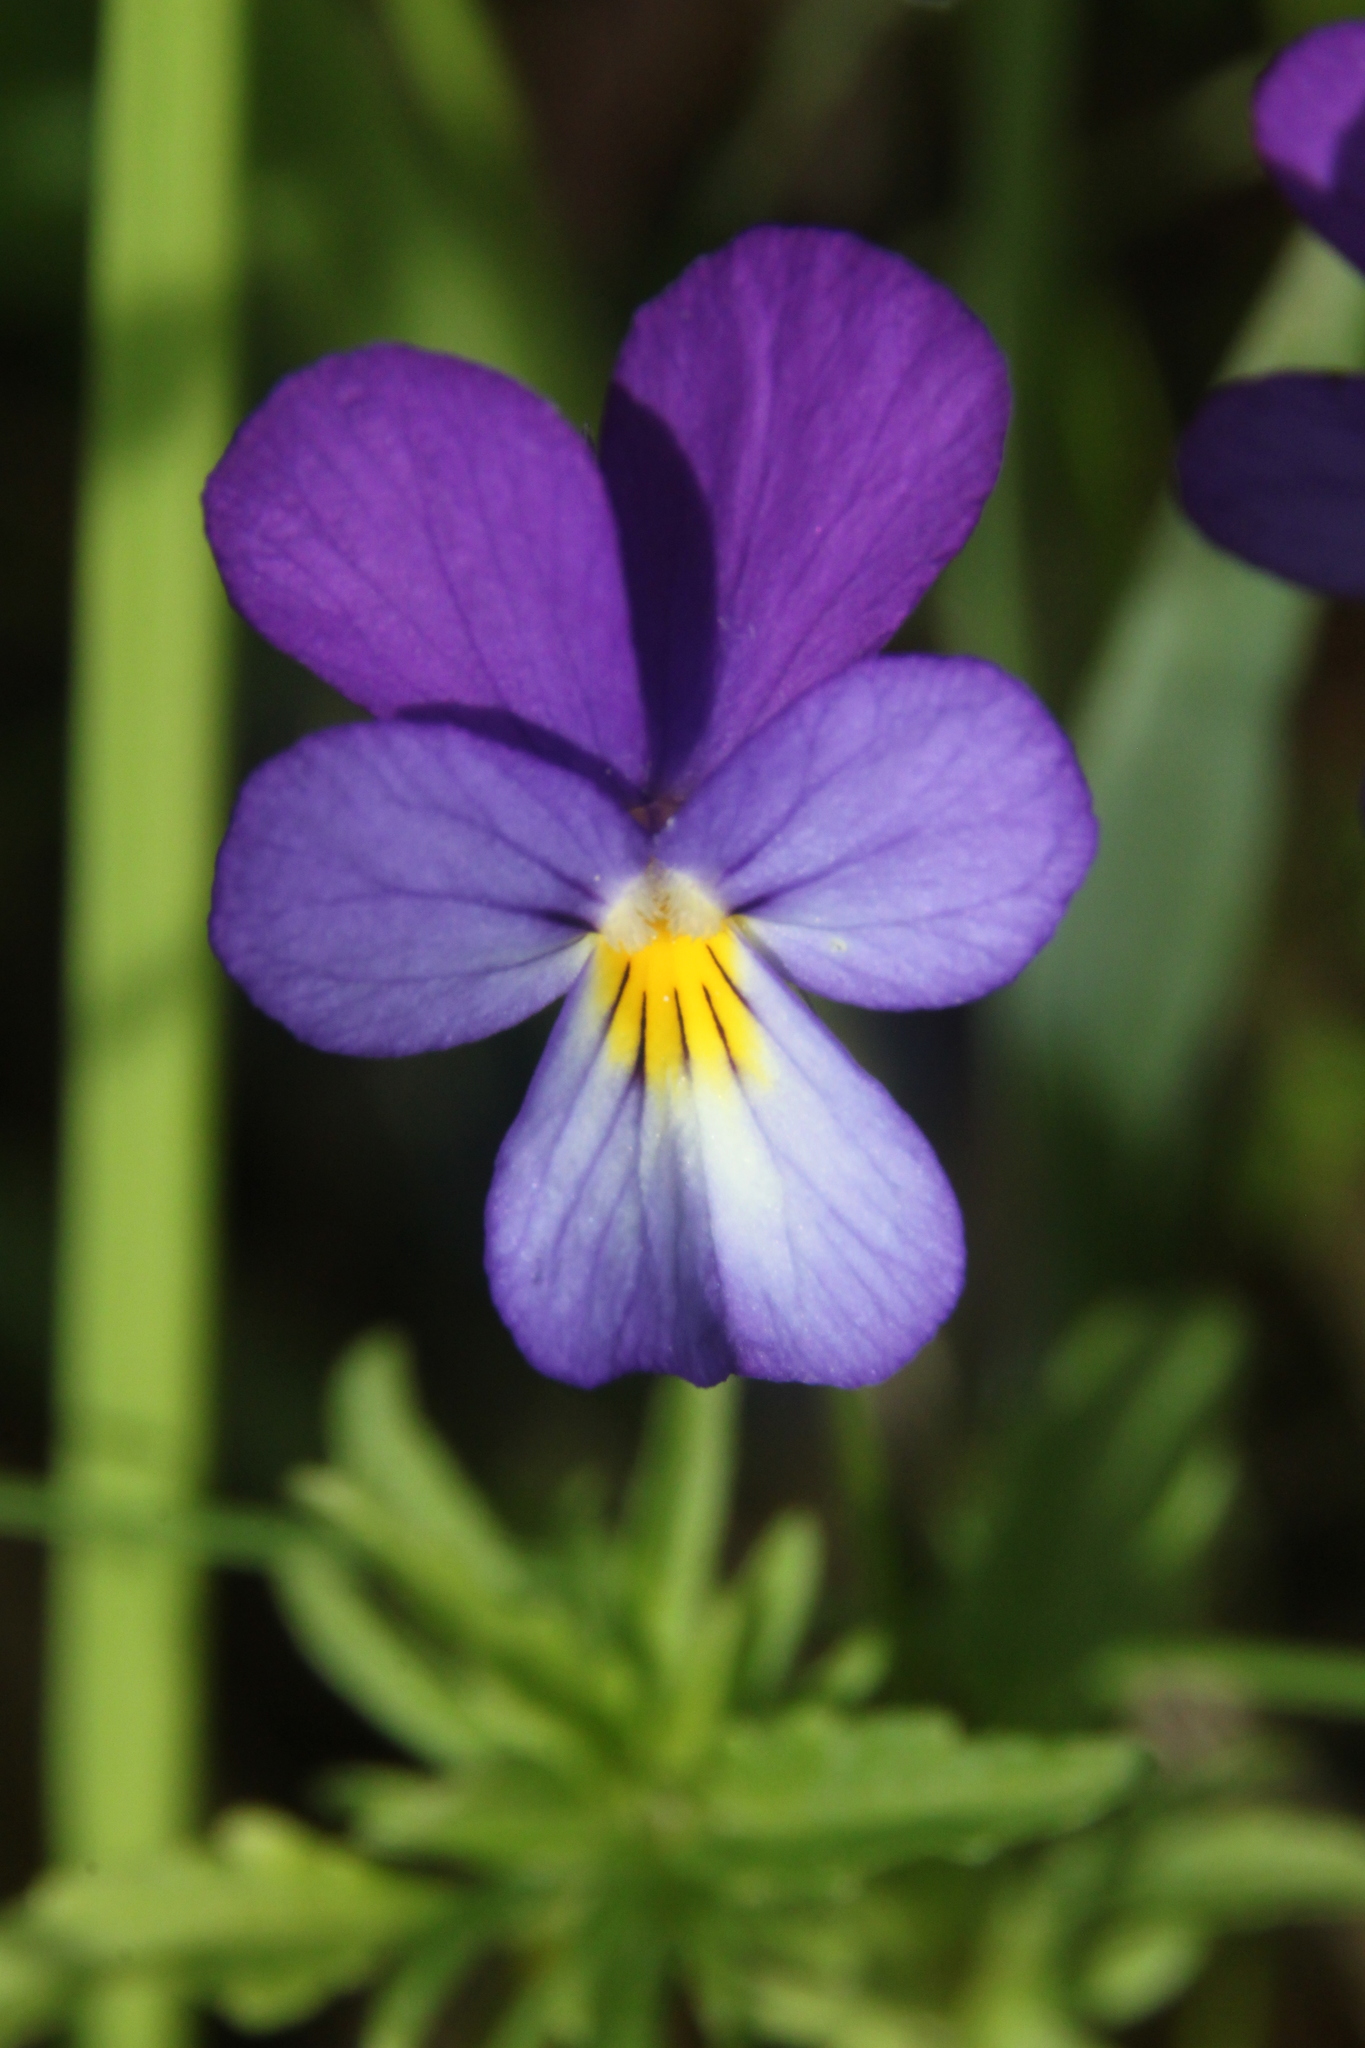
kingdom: Plantae
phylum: Tracheophyta
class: Magnoliopsida
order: Malpighiales
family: Violaceae
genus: Viola
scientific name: Viola tricolor
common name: Pansy
